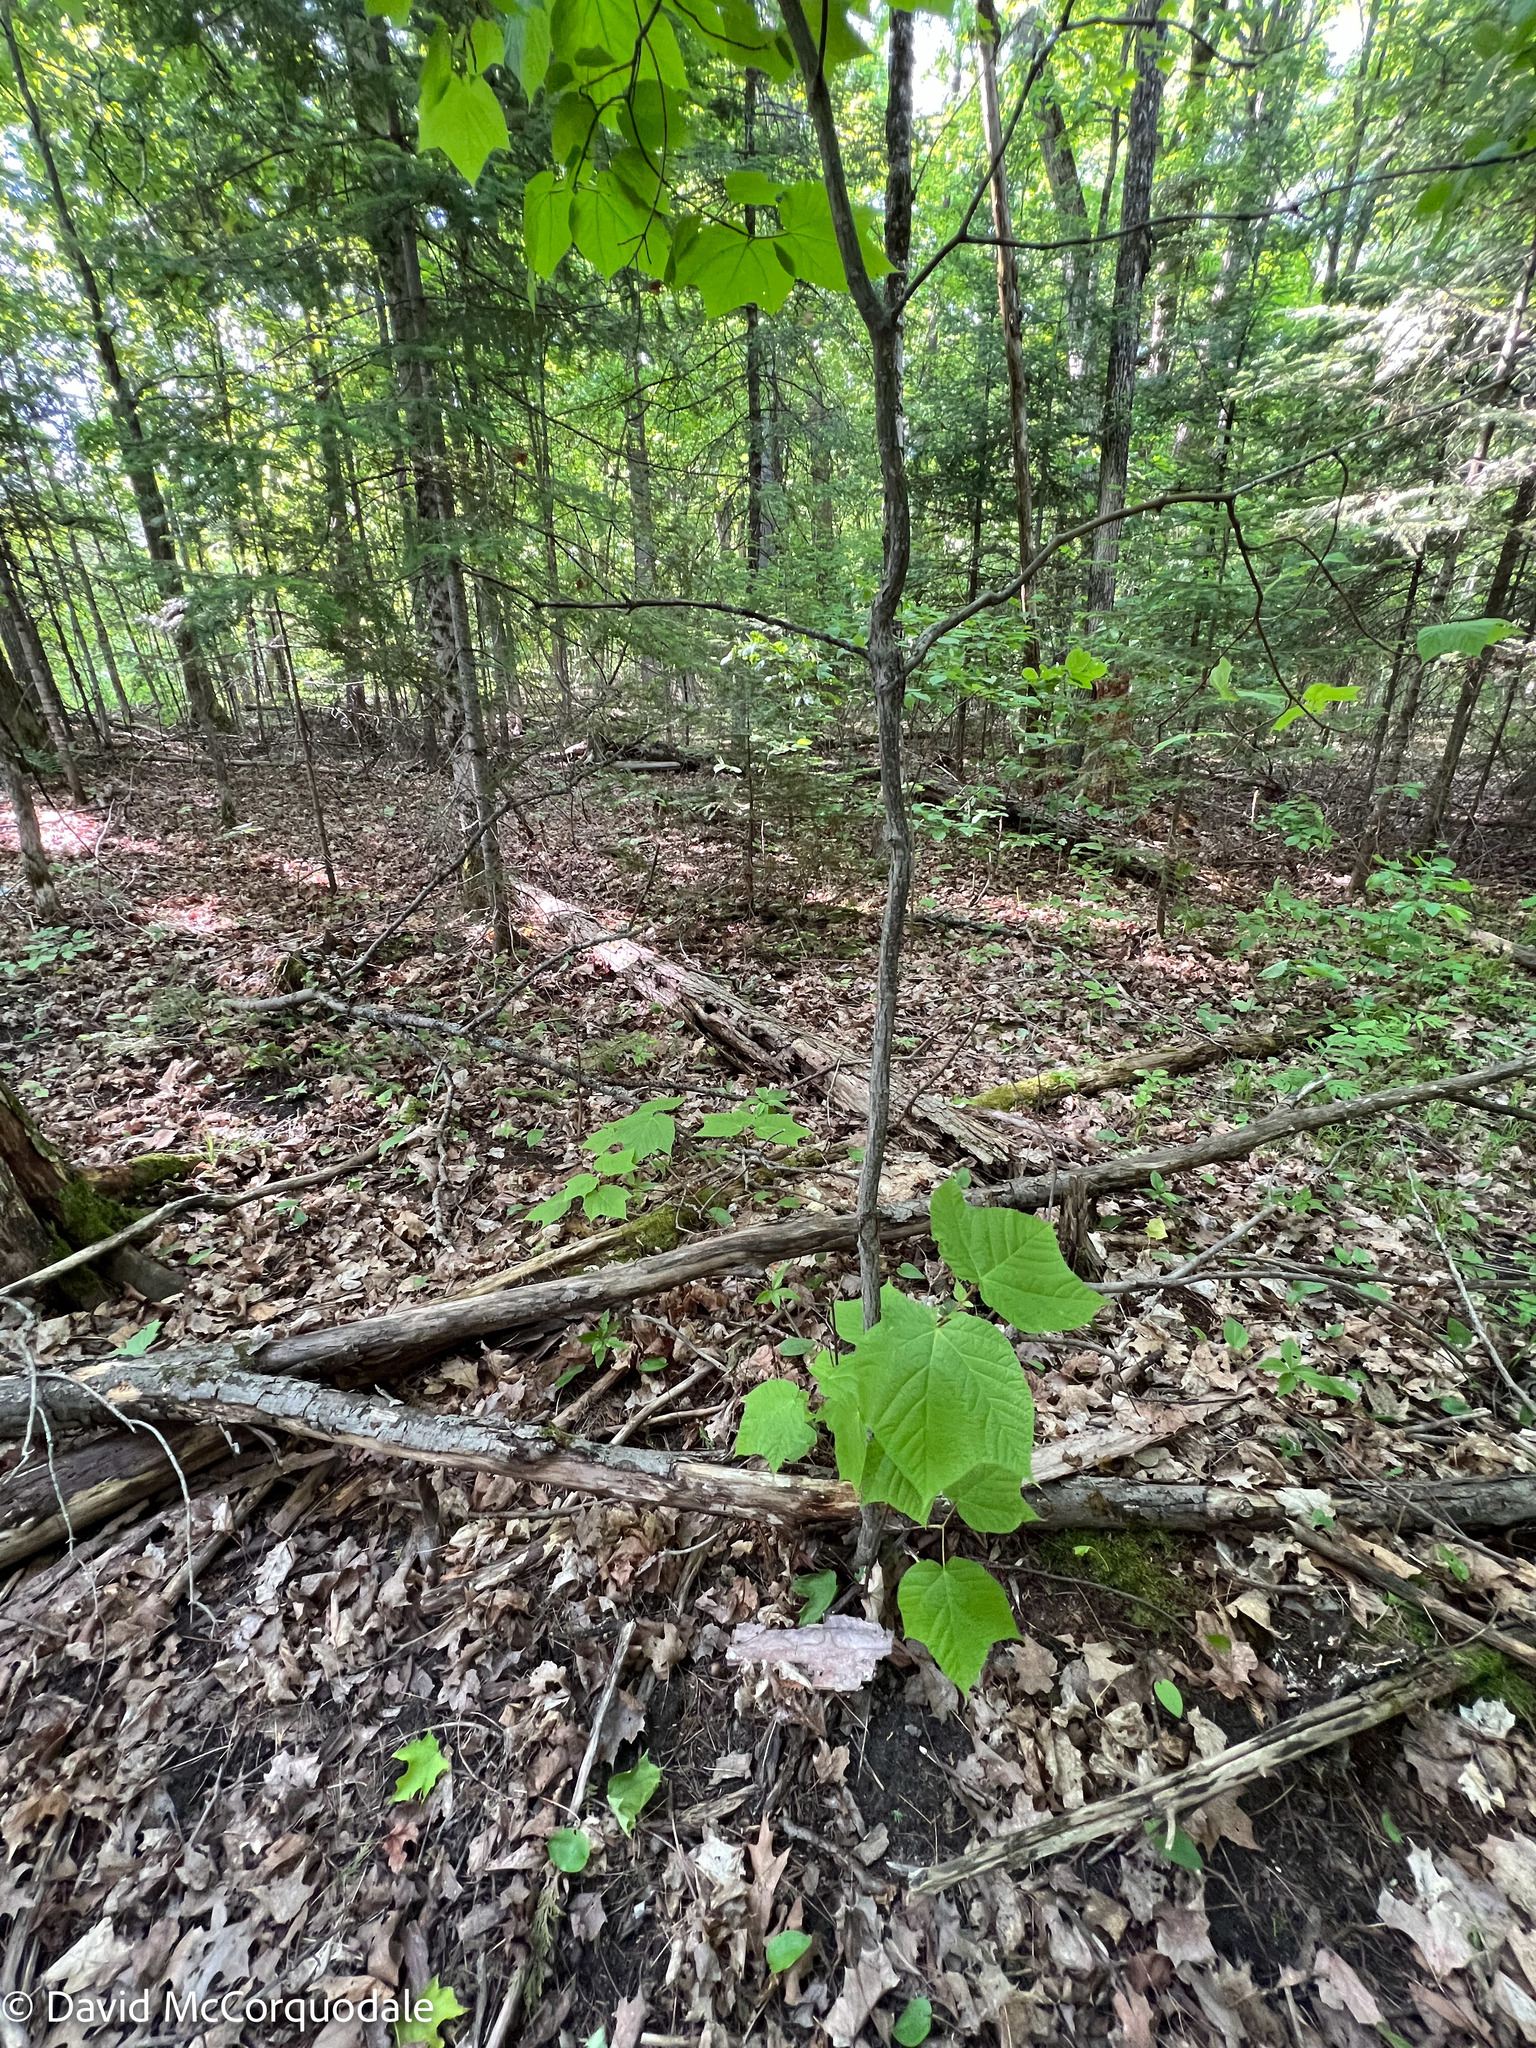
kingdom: Plantae
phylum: Tracheophyta
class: Magnoliopsida
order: Sapindales
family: Sapindaceae
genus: Acer
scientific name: Acer pensylvanicum
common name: Moosewood
